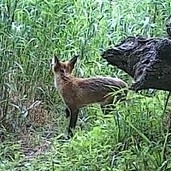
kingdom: Animalia
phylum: Chordata
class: Mammalia
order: Carnivora
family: Canidae
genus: Vulpes
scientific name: Vulpes vulpes
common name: Red fox
